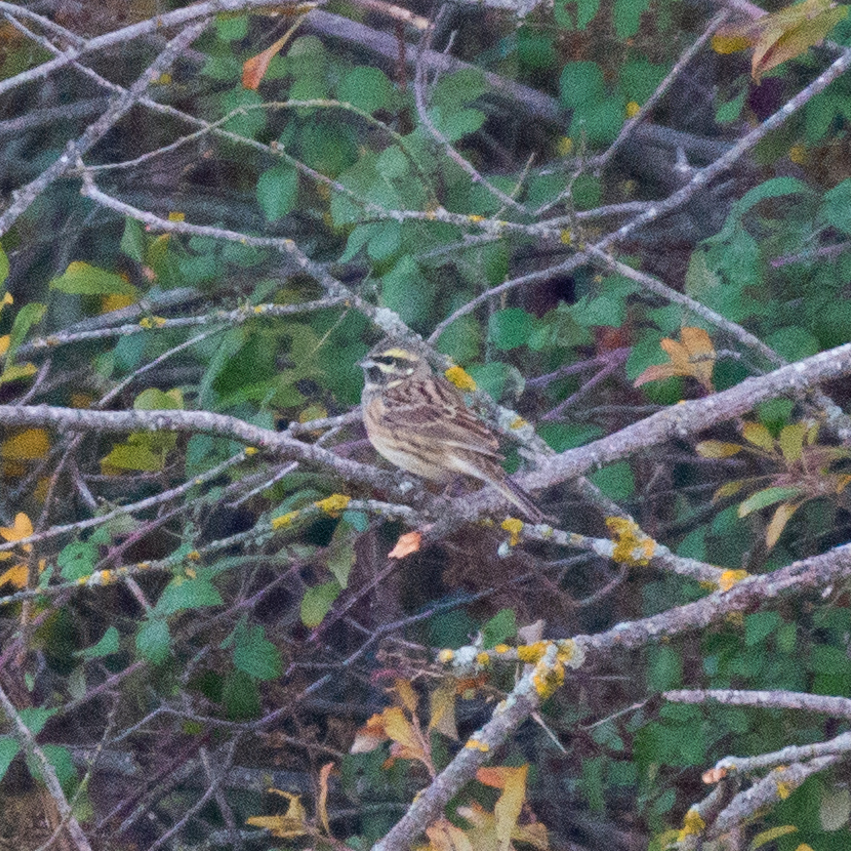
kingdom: Animalia
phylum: Chordata
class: Aves
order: Passeriformes
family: Emberizidae
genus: Emberiza
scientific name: Emberiza cirlus
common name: Cirl bunting
